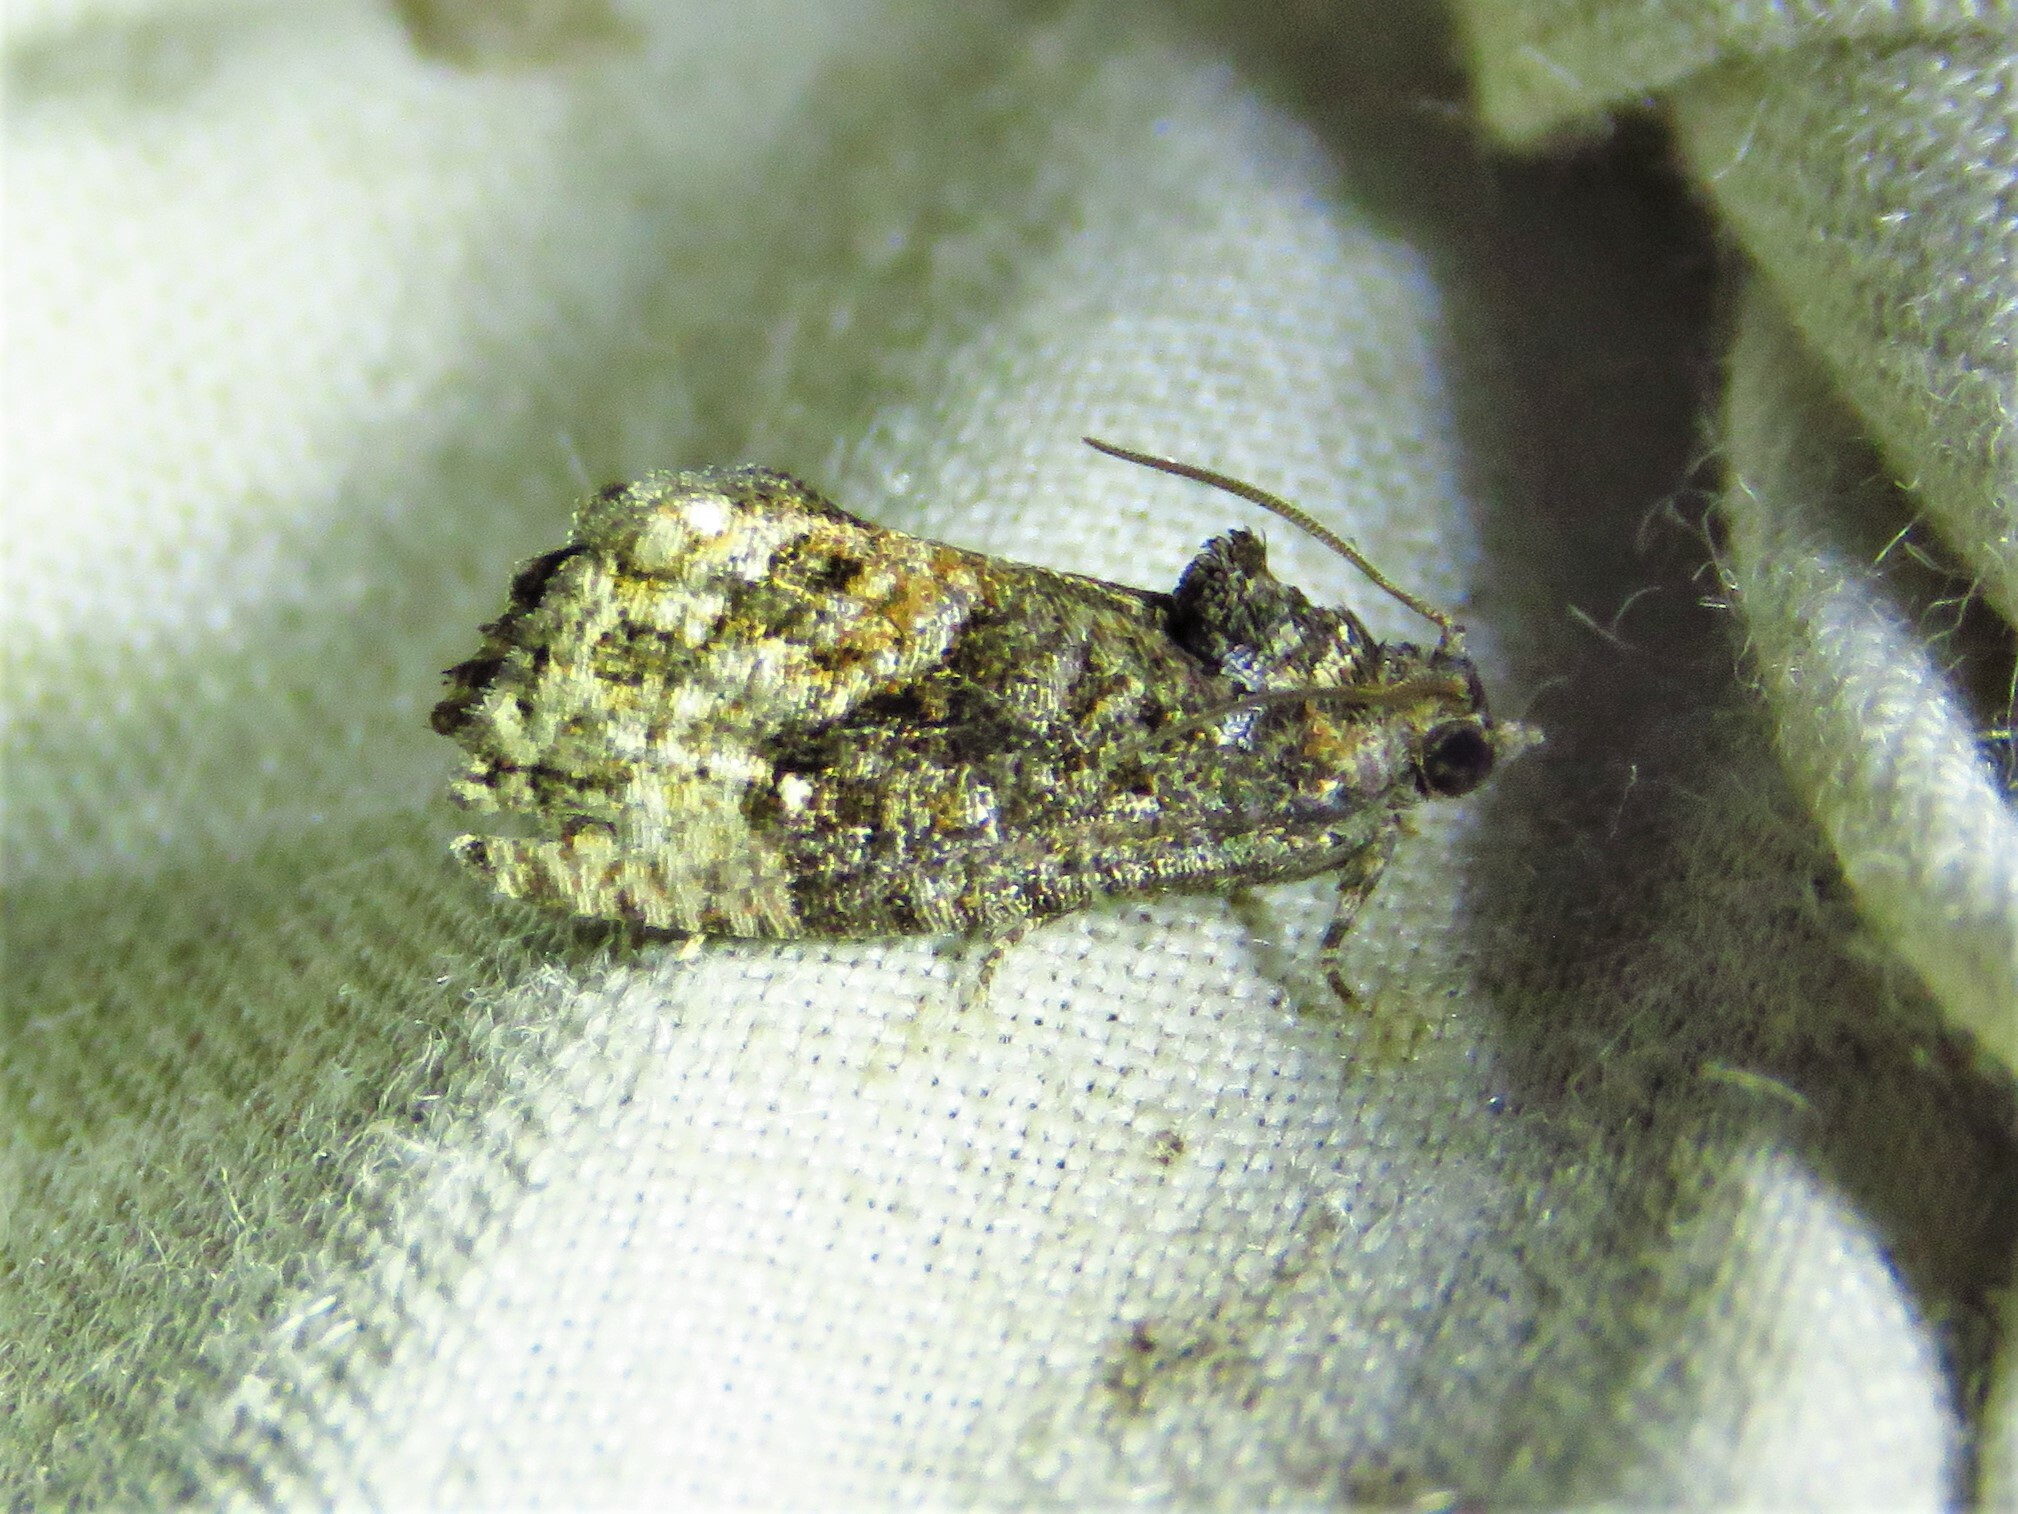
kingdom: Animalia
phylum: Arthropoda
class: Insecta
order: Lepidoptera
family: Tortricidae
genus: Gymnandrosoma
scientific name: Gymnandrosoma punctidiscanum
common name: Dotted ecdytolopha moth
